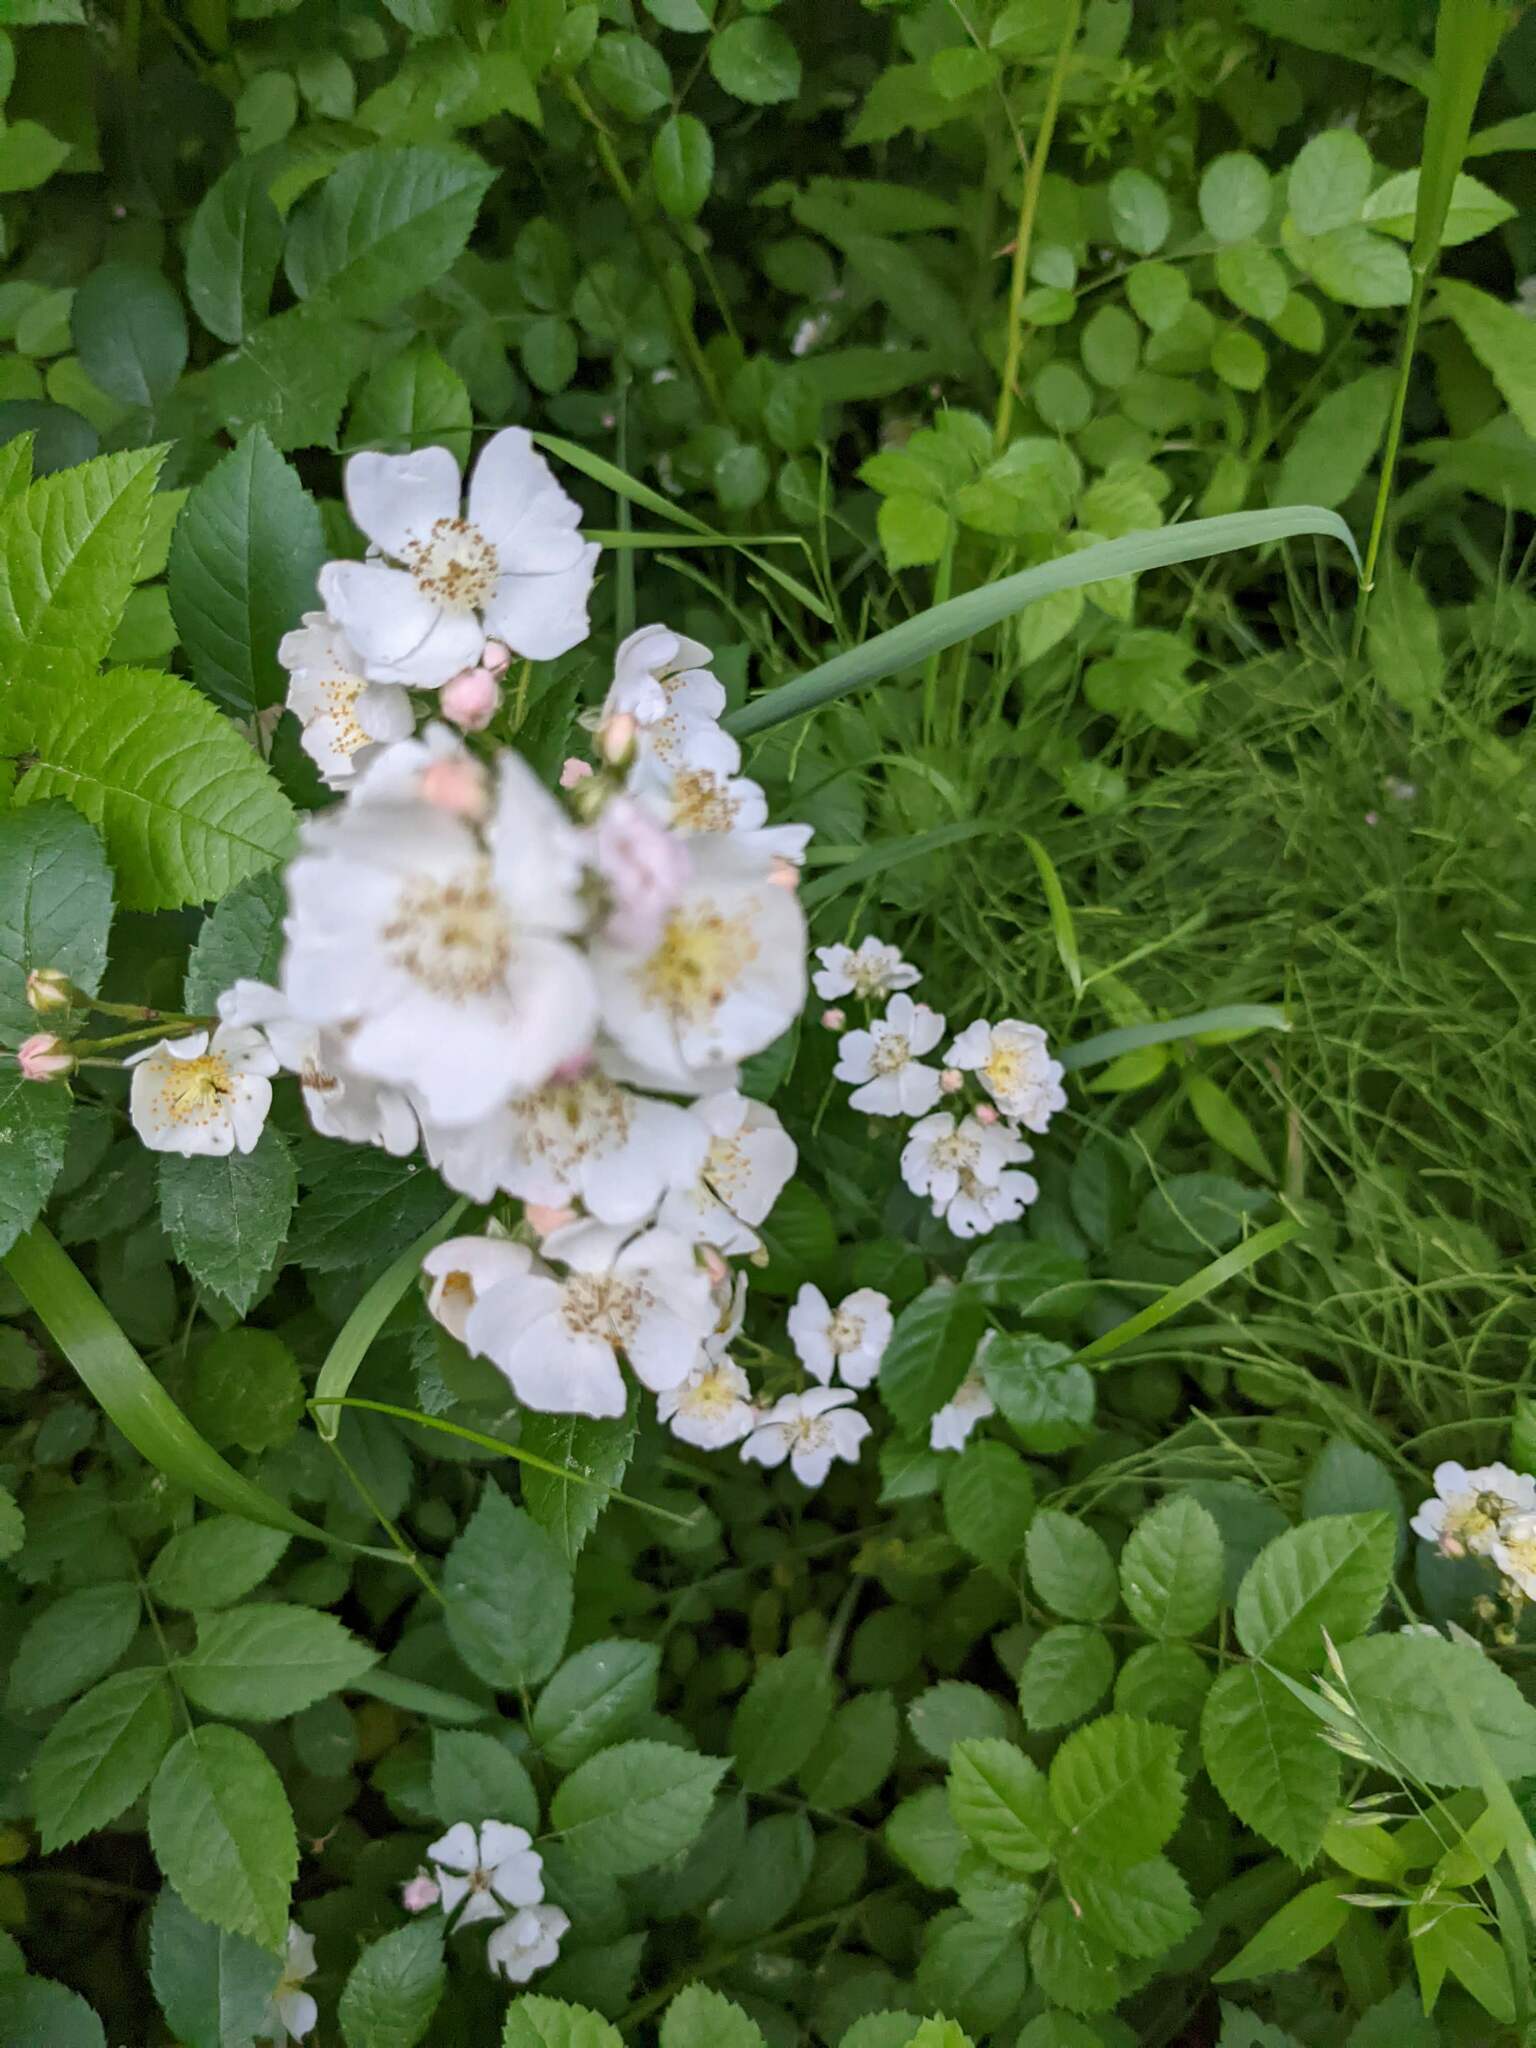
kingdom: Plantae
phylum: Tracheophyta
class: Magnoliopsida
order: Rosales
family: Rosaceae
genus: Rosa
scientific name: Rosa multiflora
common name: Multiflora rose
